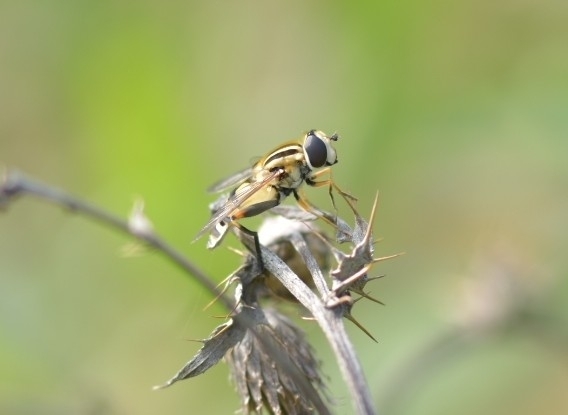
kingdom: Animalia
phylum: Arthropoda
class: Insecta
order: Diptera
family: Syrphidae
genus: Helophilus
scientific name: Helophilus trivittatus
